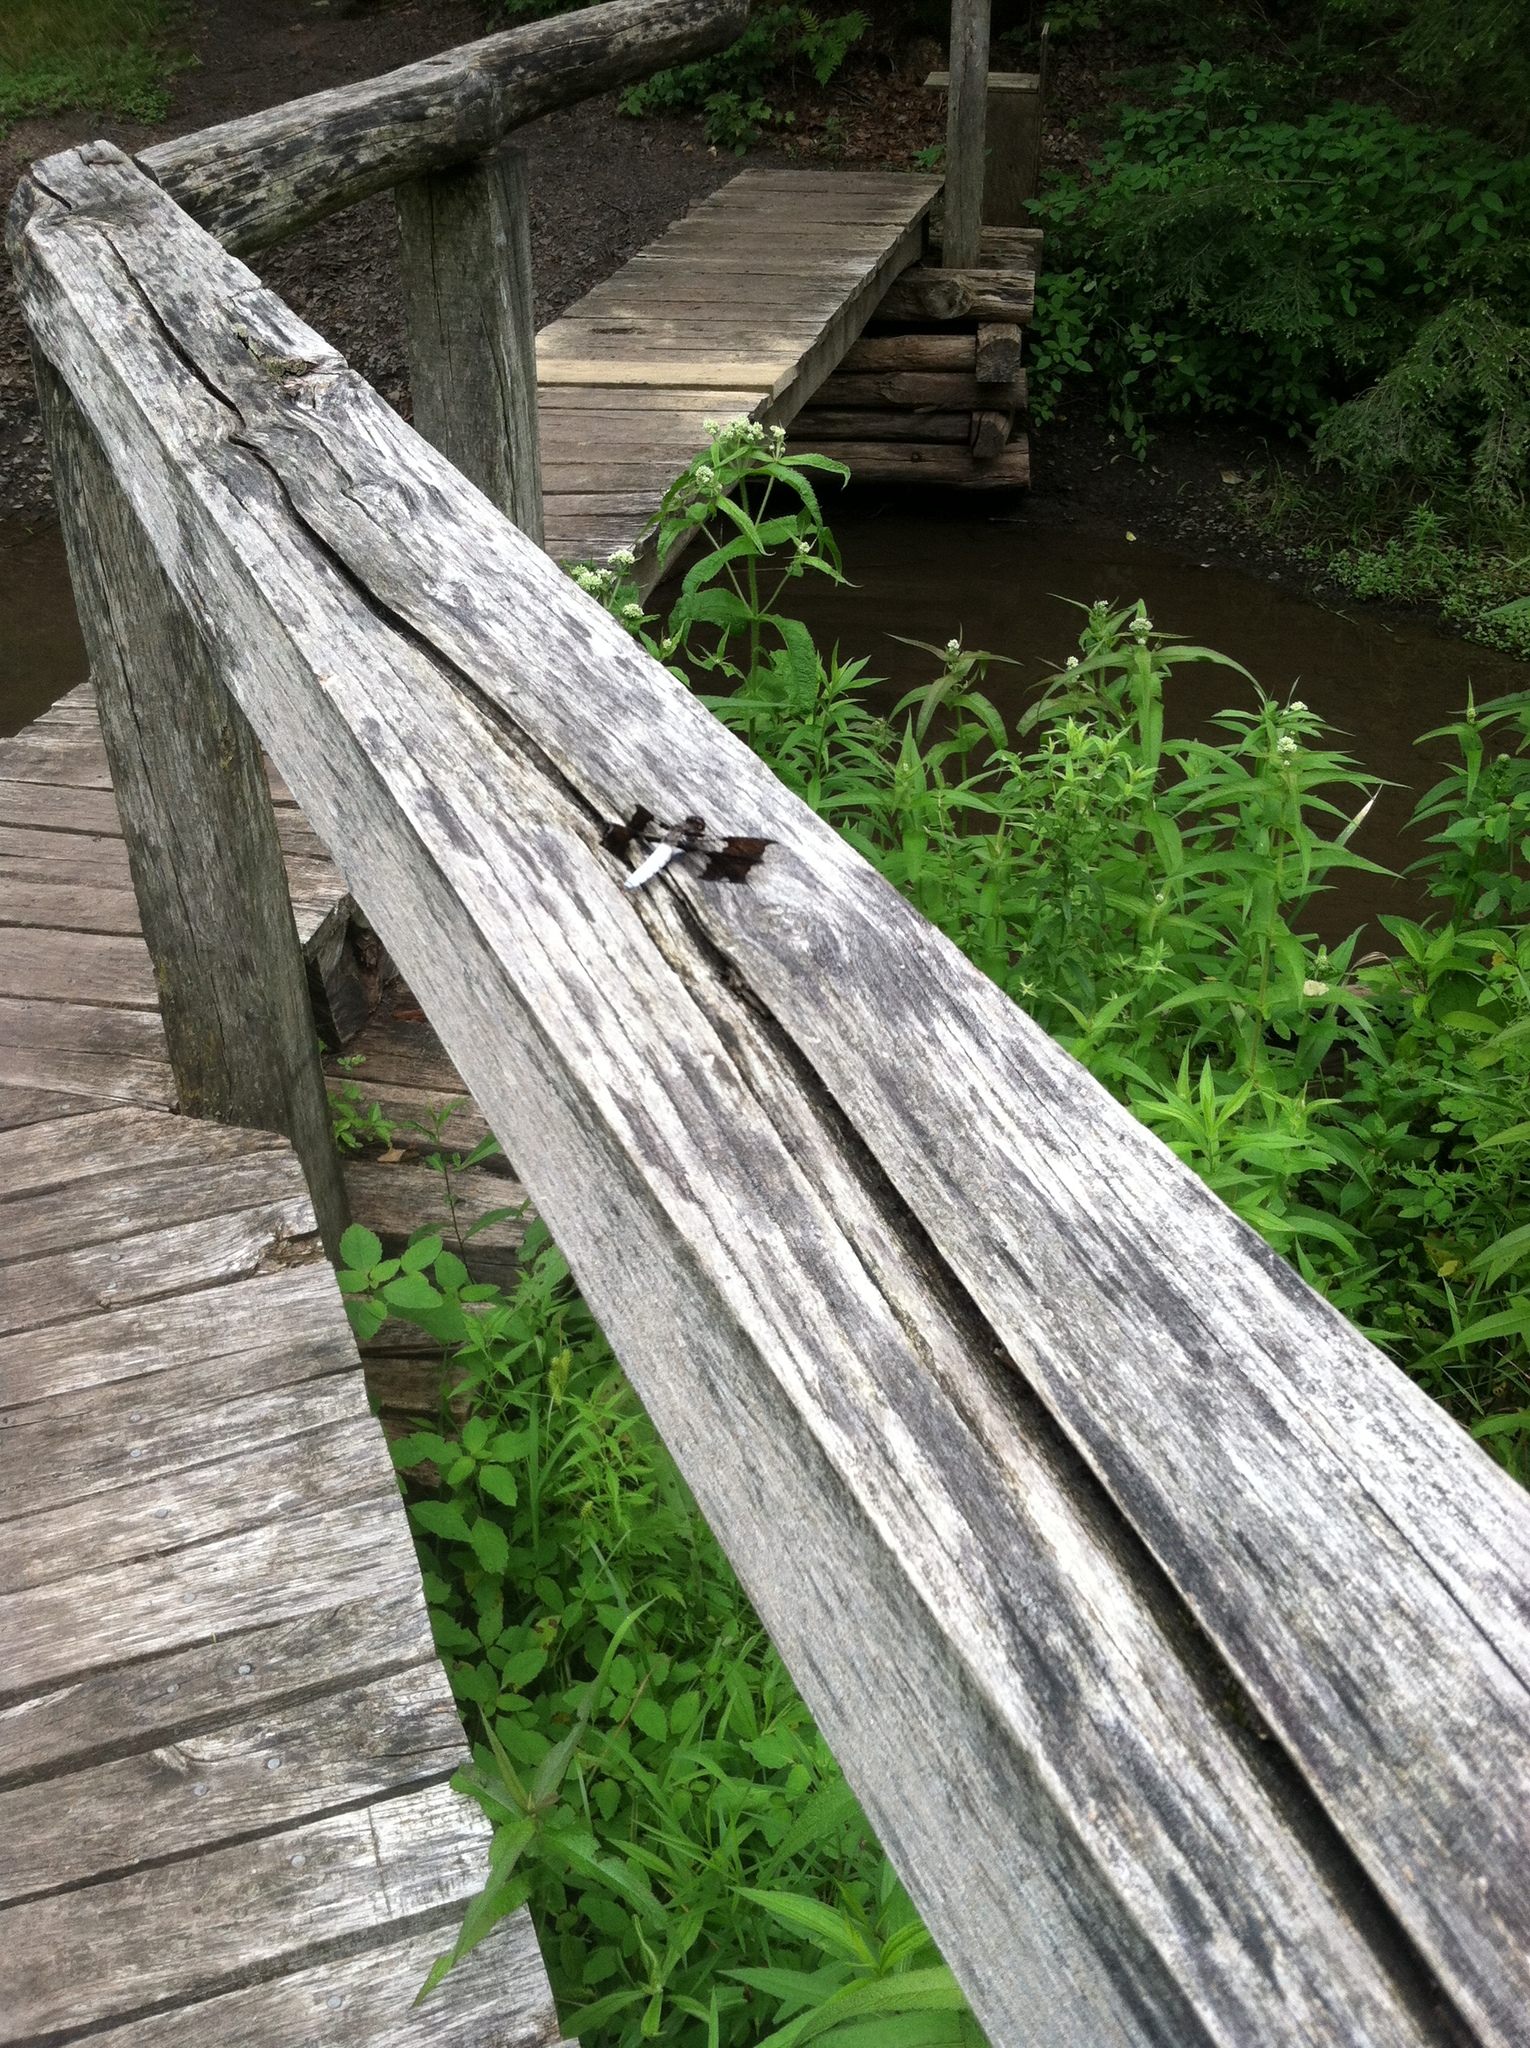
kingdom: Animalia
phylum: Arthropoda
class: Insecta
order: Odonata
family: Libellulidae
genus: Plathemis
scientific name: Plathemis lydia
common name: Common whitetail
